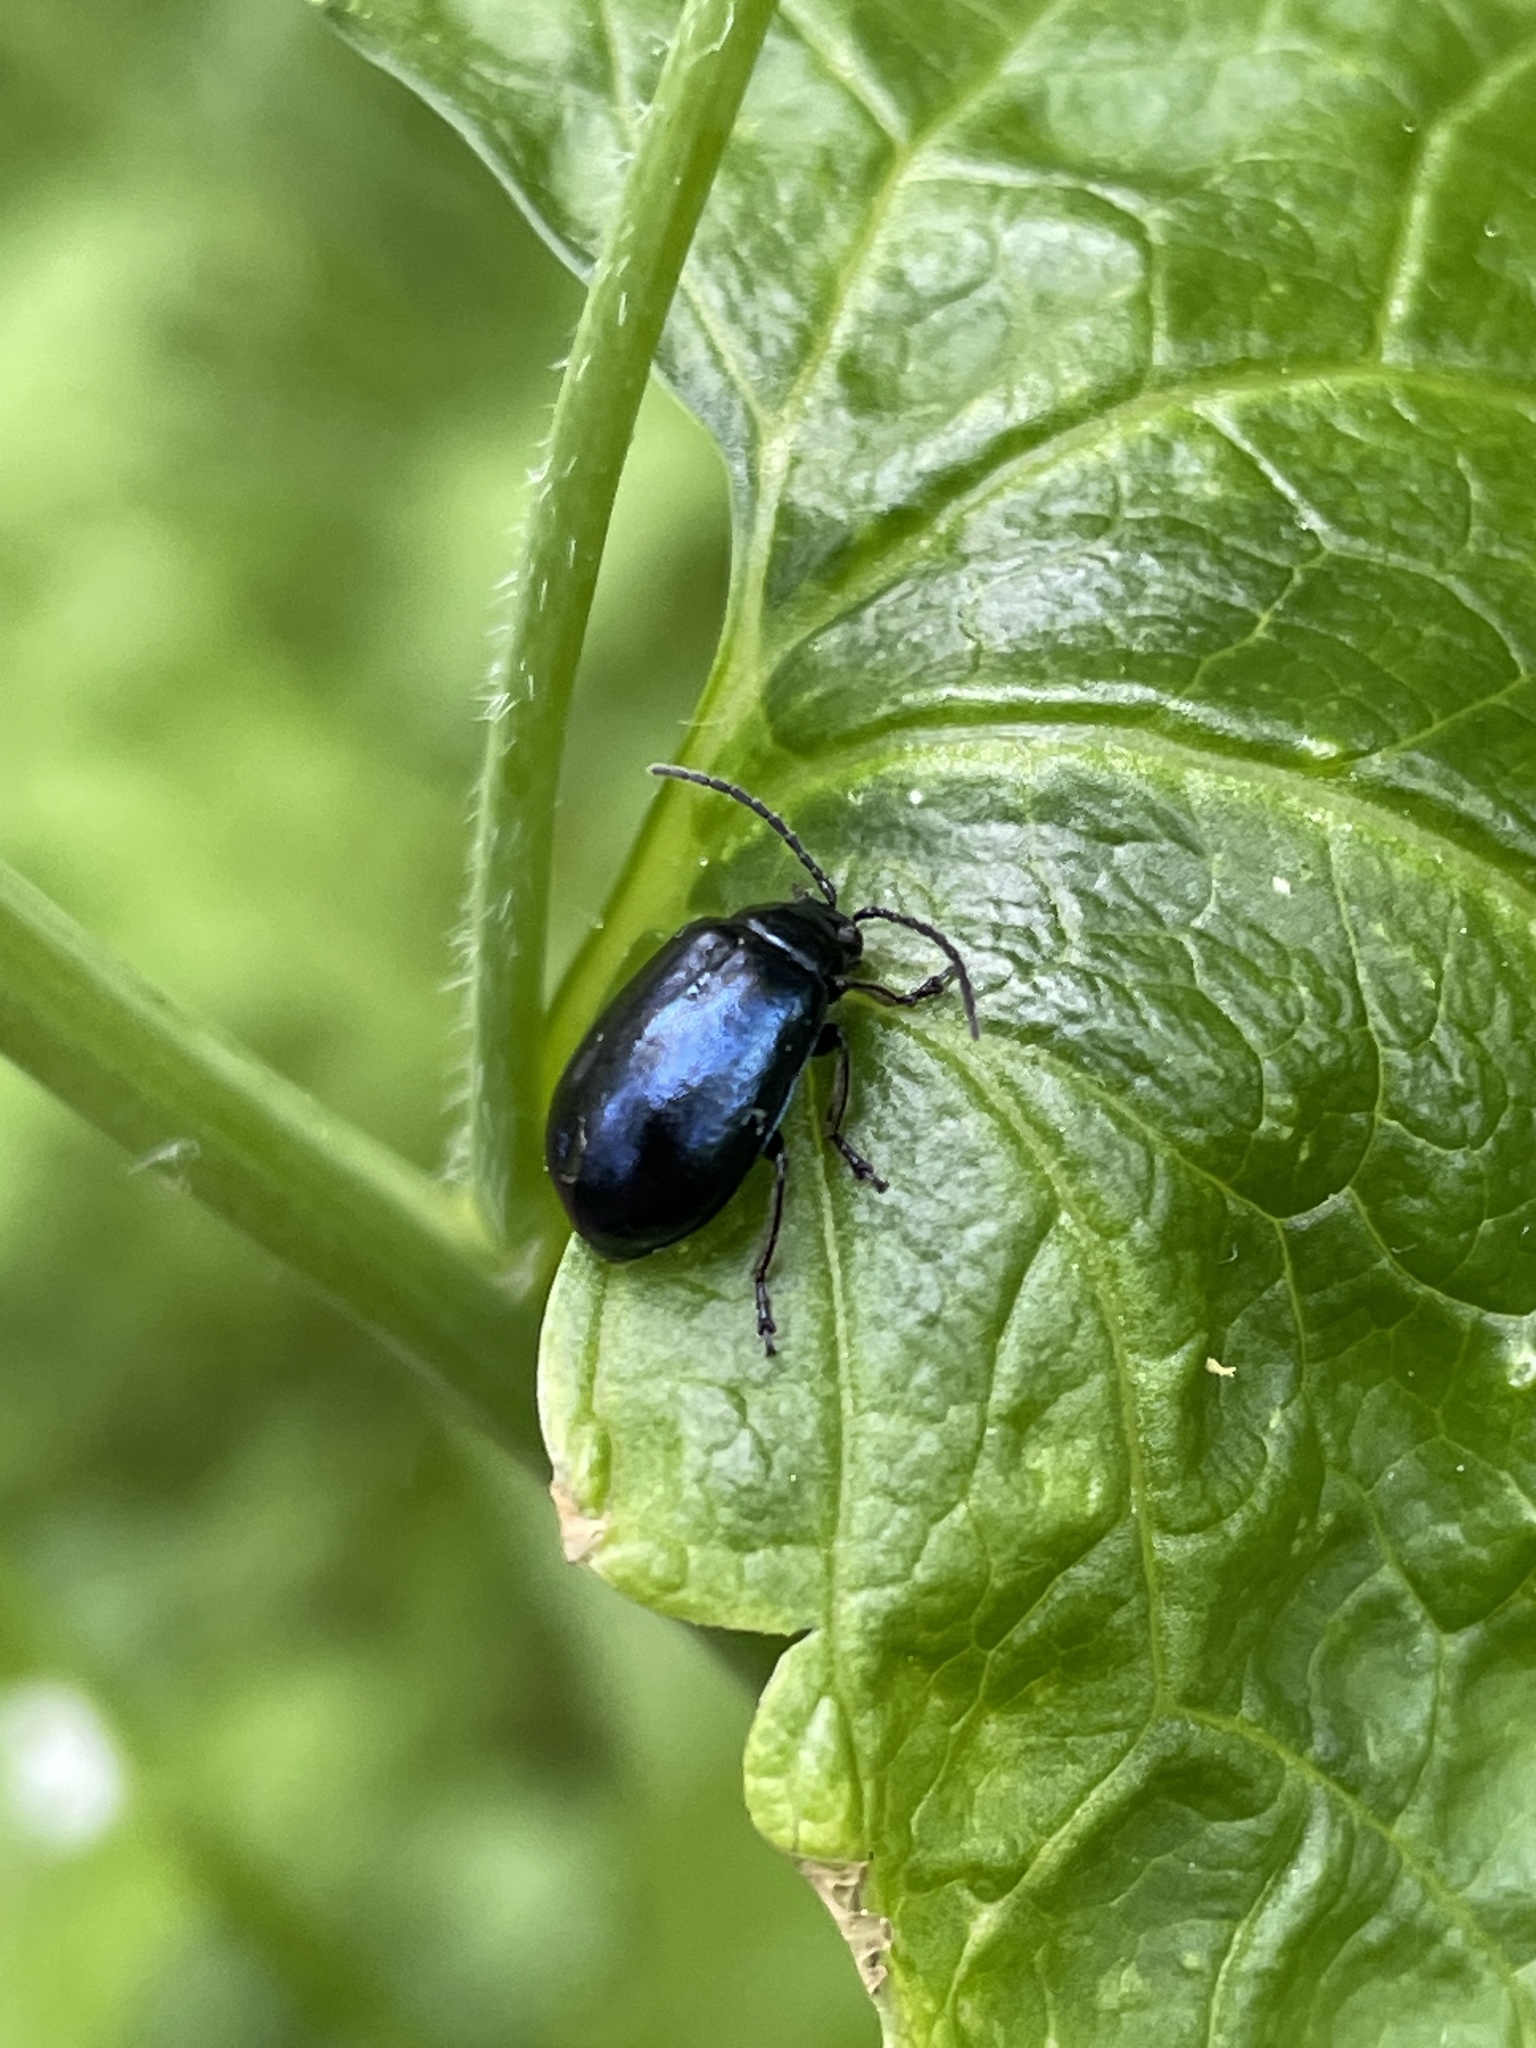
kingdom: Animalia
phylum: Arthropoda
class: Insecta
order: Coleoptera
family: Chrysomelidae
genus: Agelastica
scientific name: Agelastica alni
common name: Alder leaf beetle
